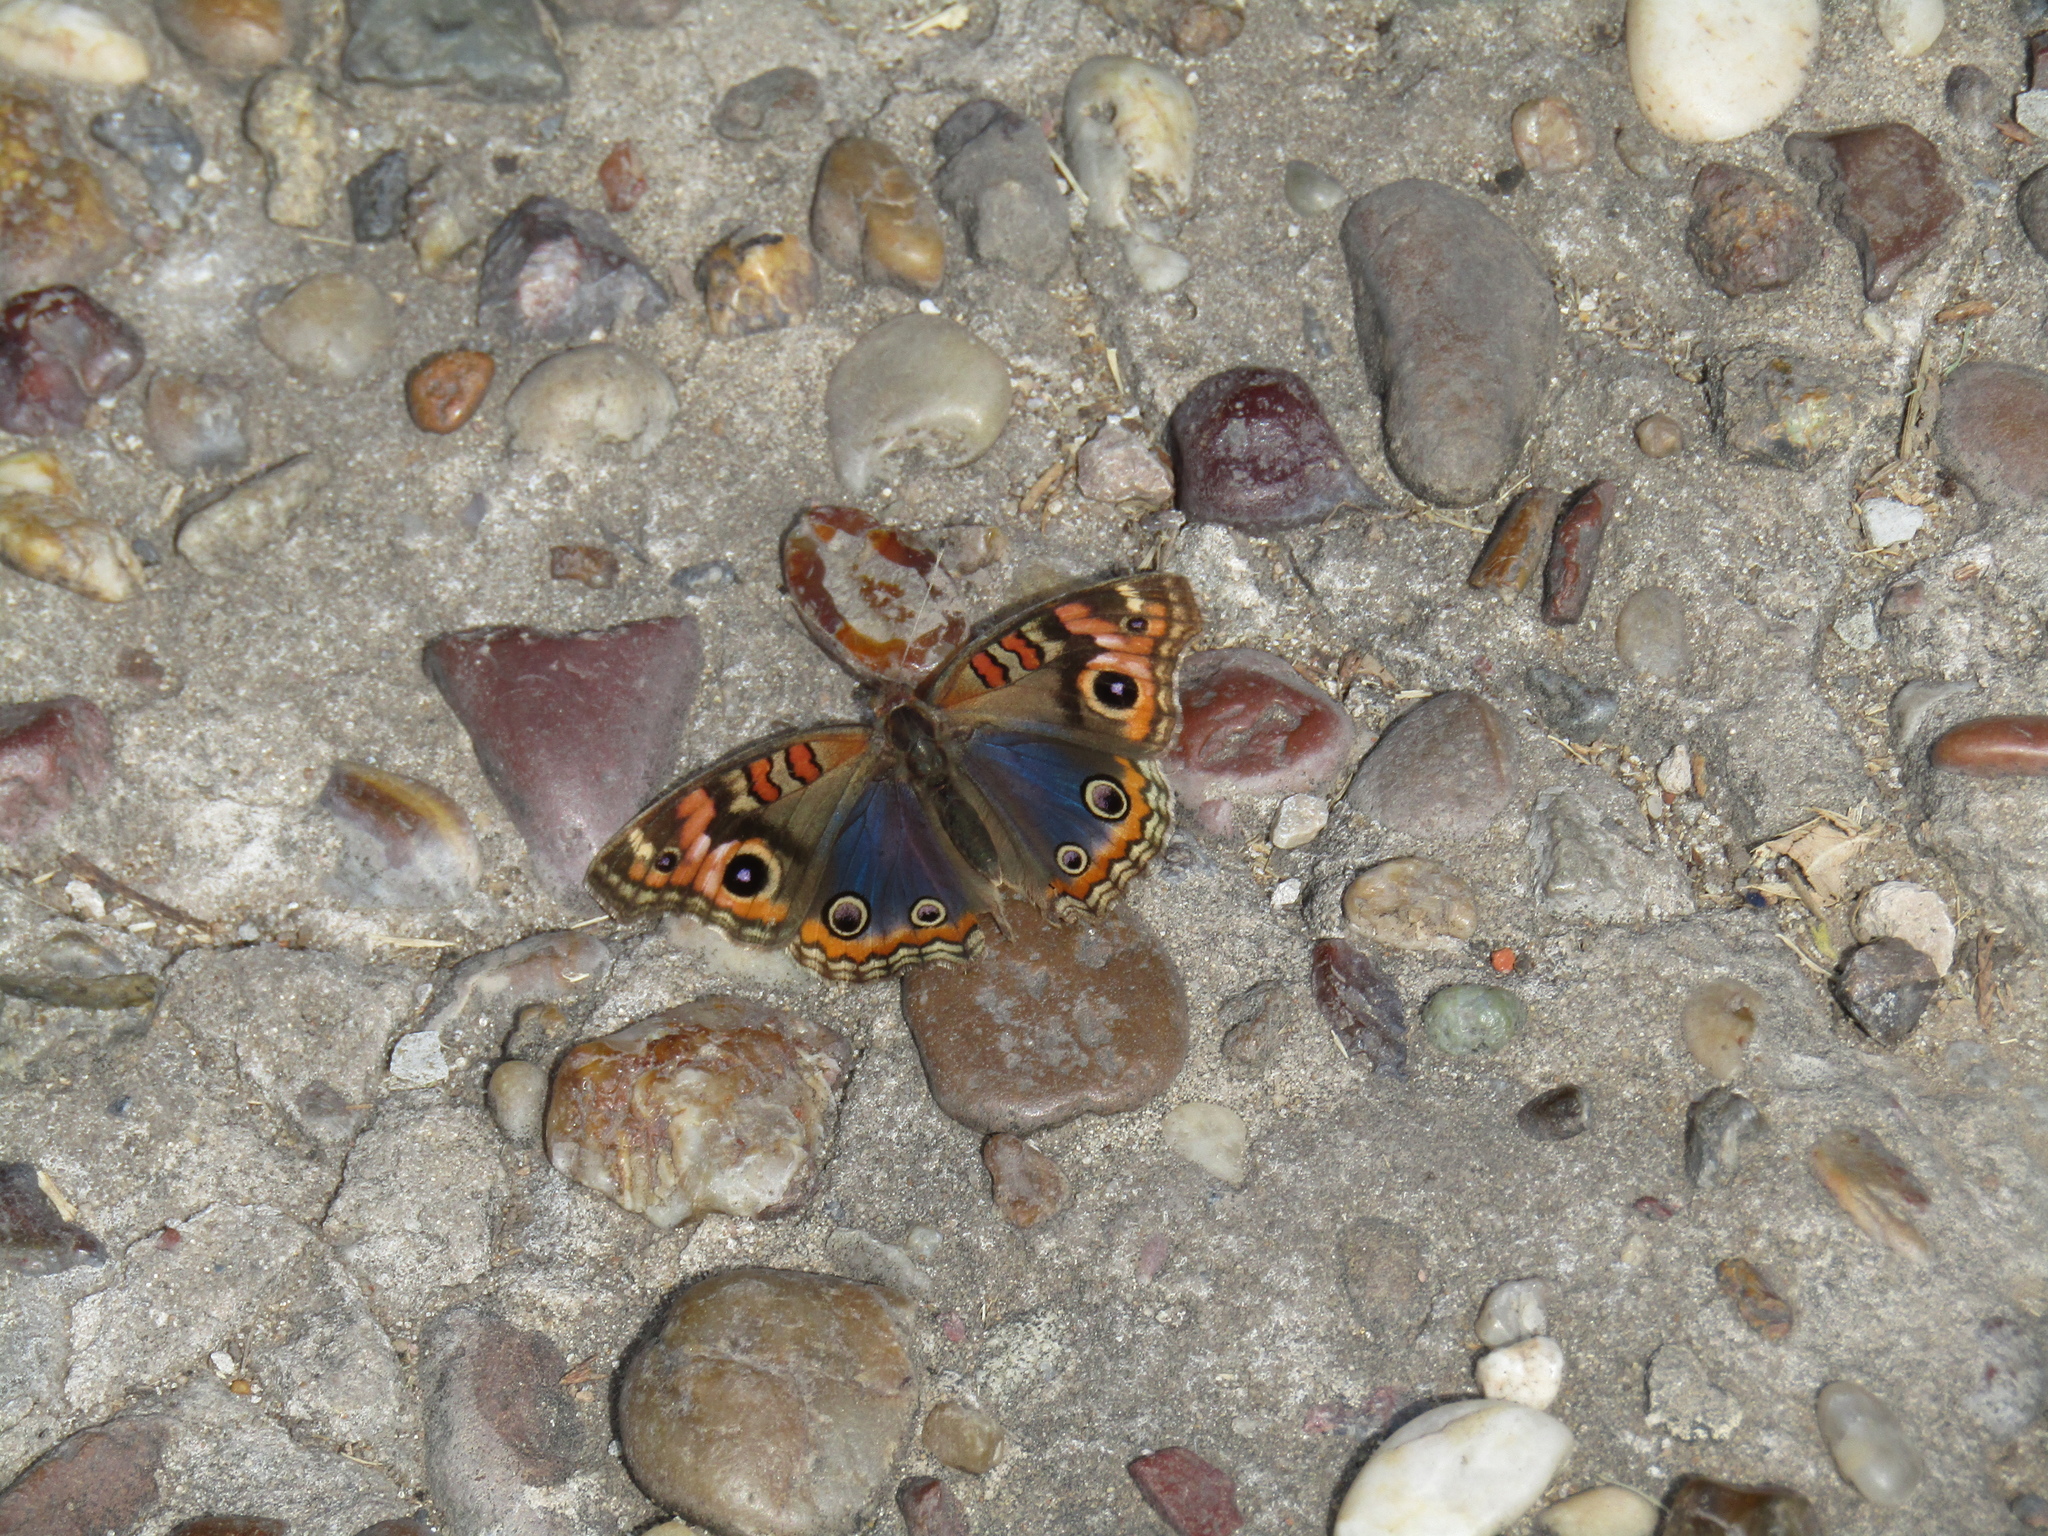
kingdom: Animalia
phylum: Arthropoda
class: Insecta
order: Lepidoptera
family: Nymphalidae
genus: Junonia
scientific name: Junonia lavinia
